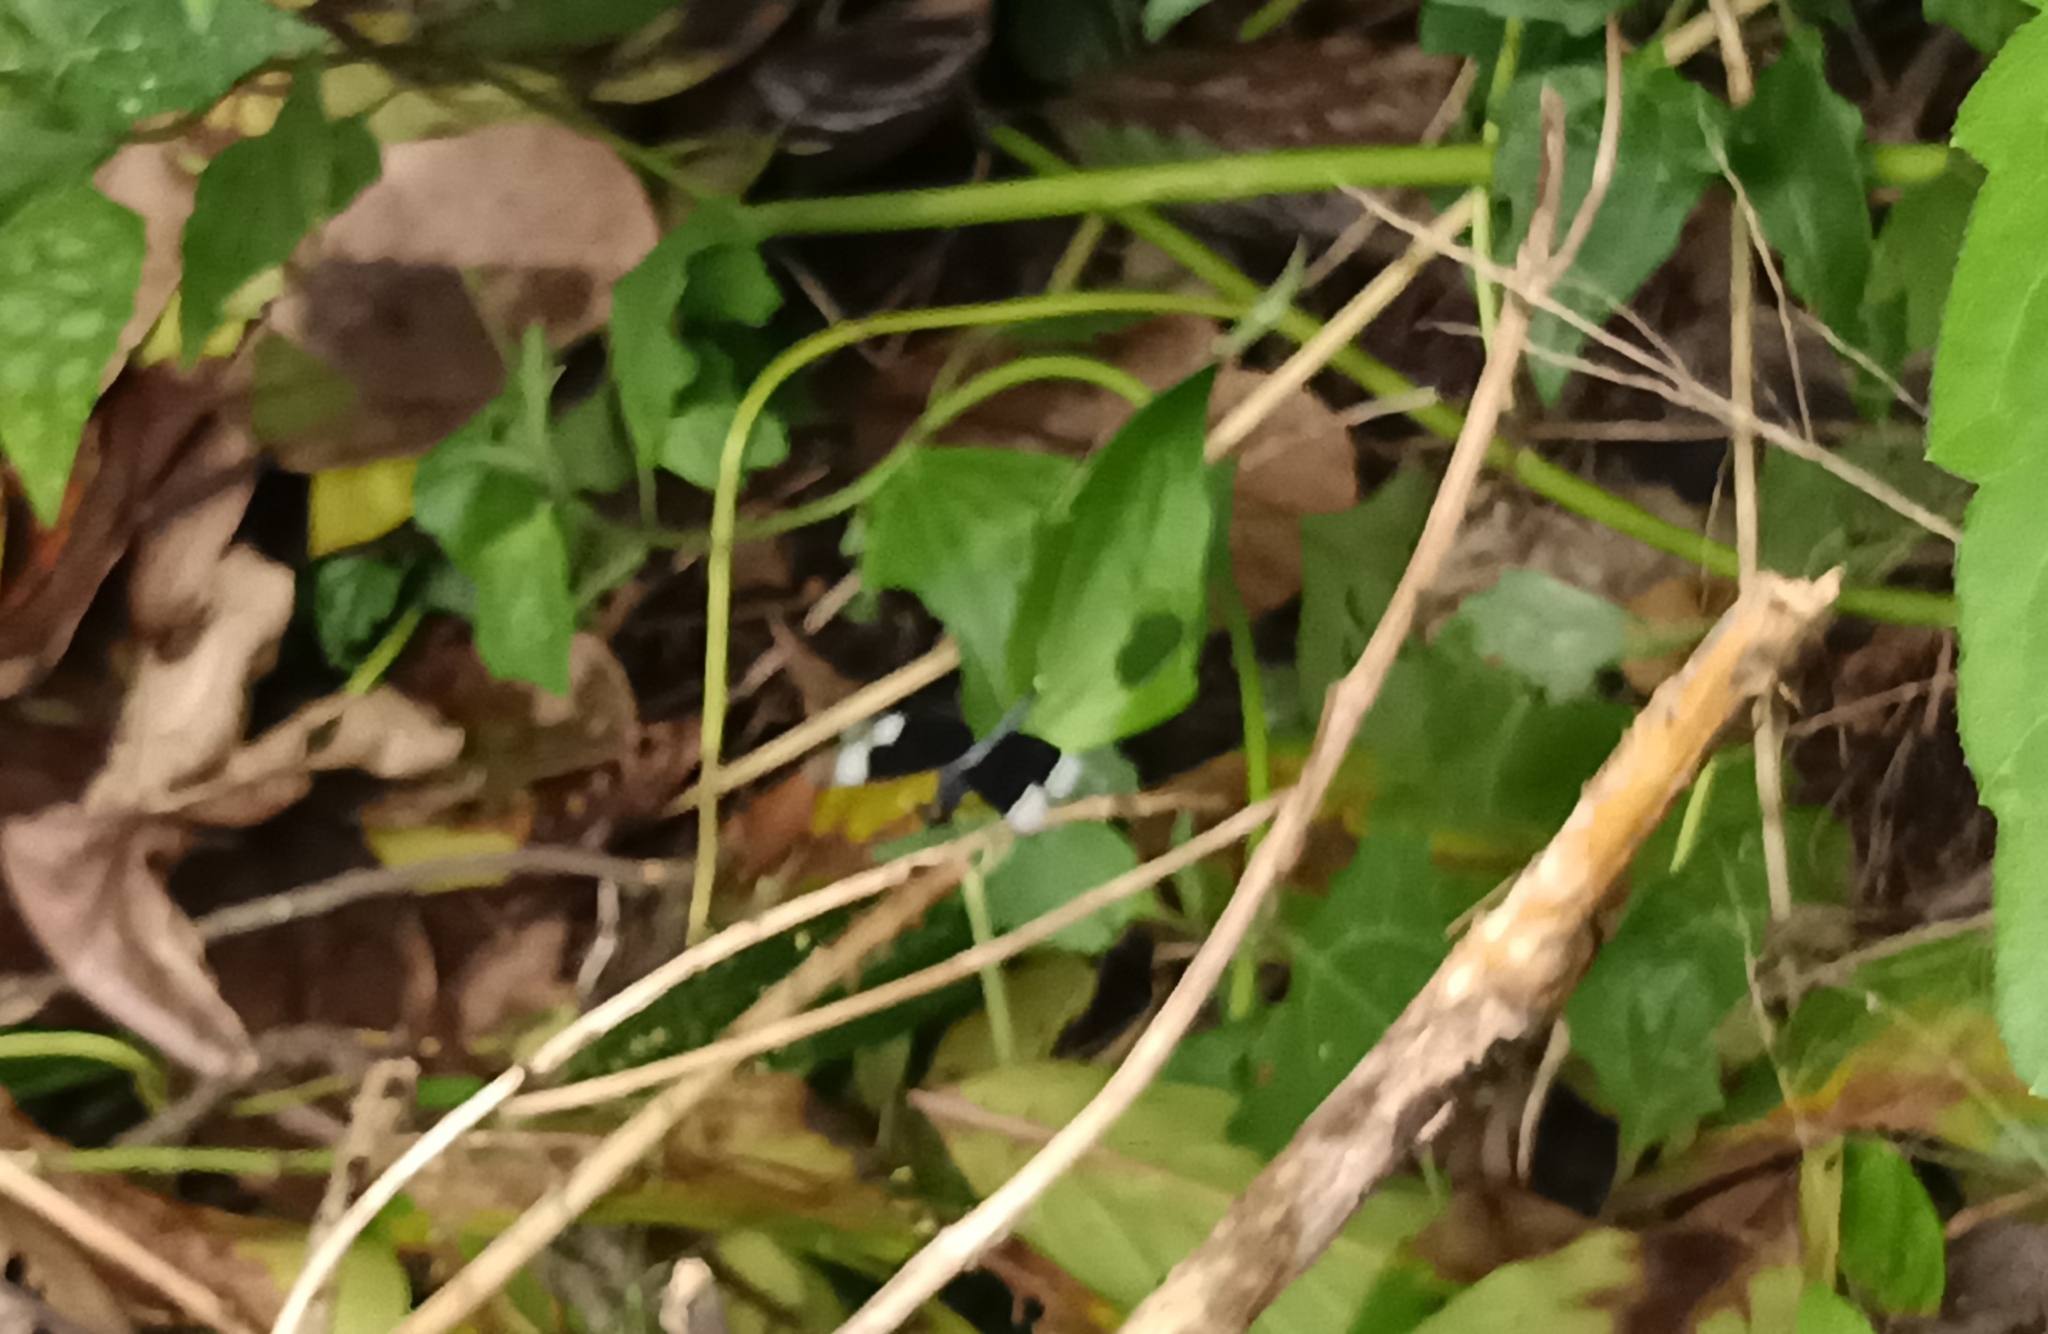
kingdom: Animalia
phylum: Arthropoda
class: Insecta
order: Odonata
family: Libellulidae
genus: Neurothemis
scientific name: Neurothemis tullia
